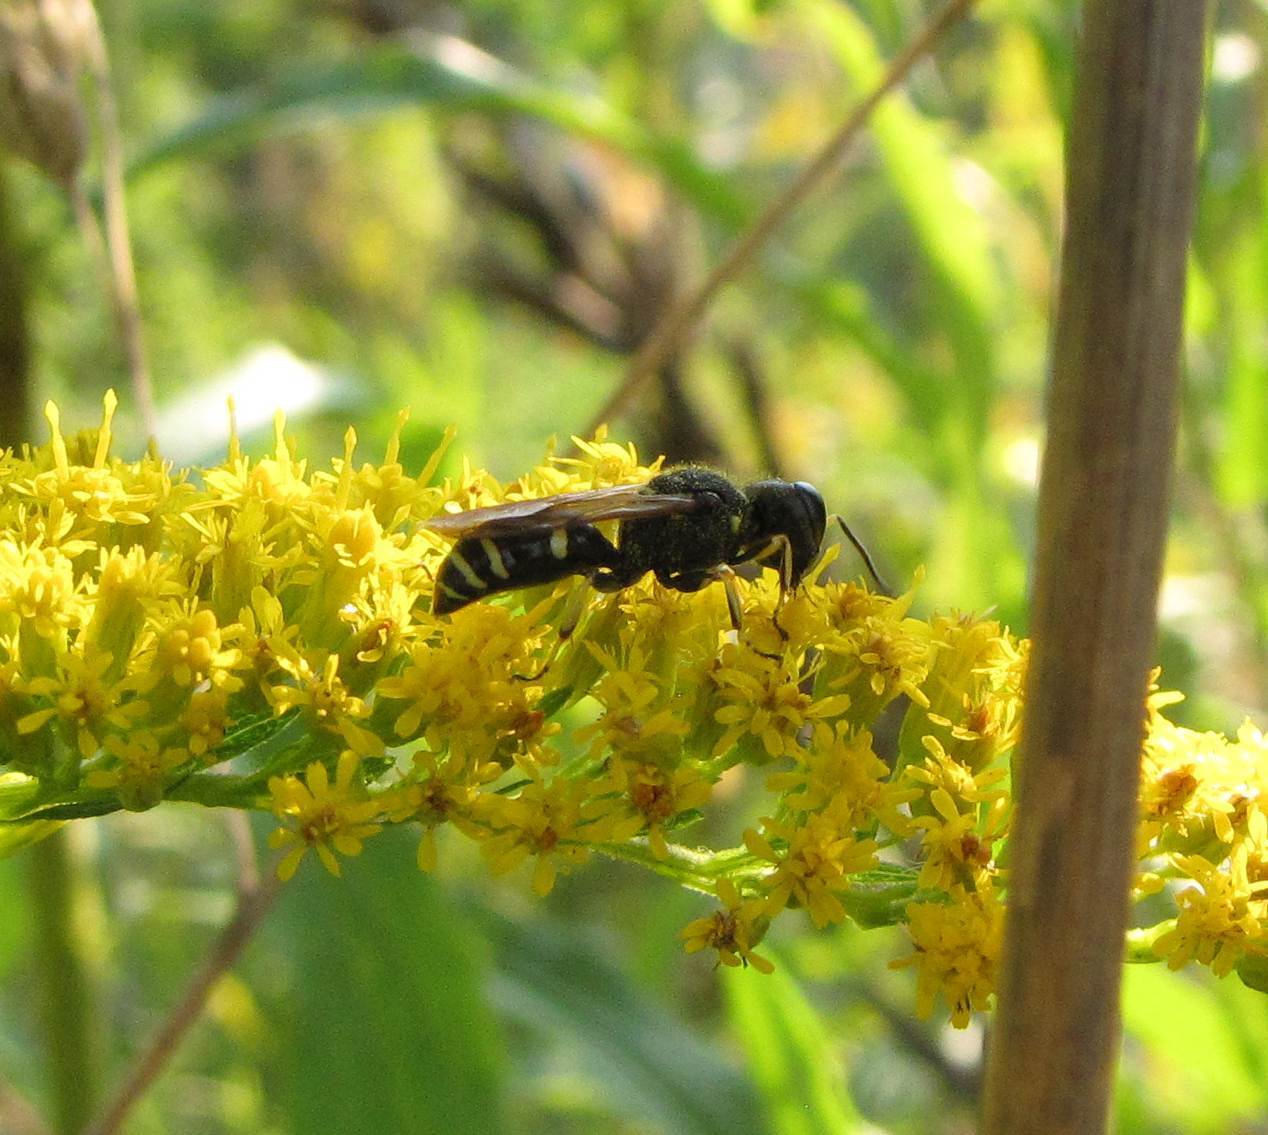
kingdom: Animalia
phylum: Arthropoda
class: Insecta
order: Hymenoptera
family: Crabronidae
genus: Ectemnius
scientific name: Ectemnius continuus
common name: Common ectemnius
